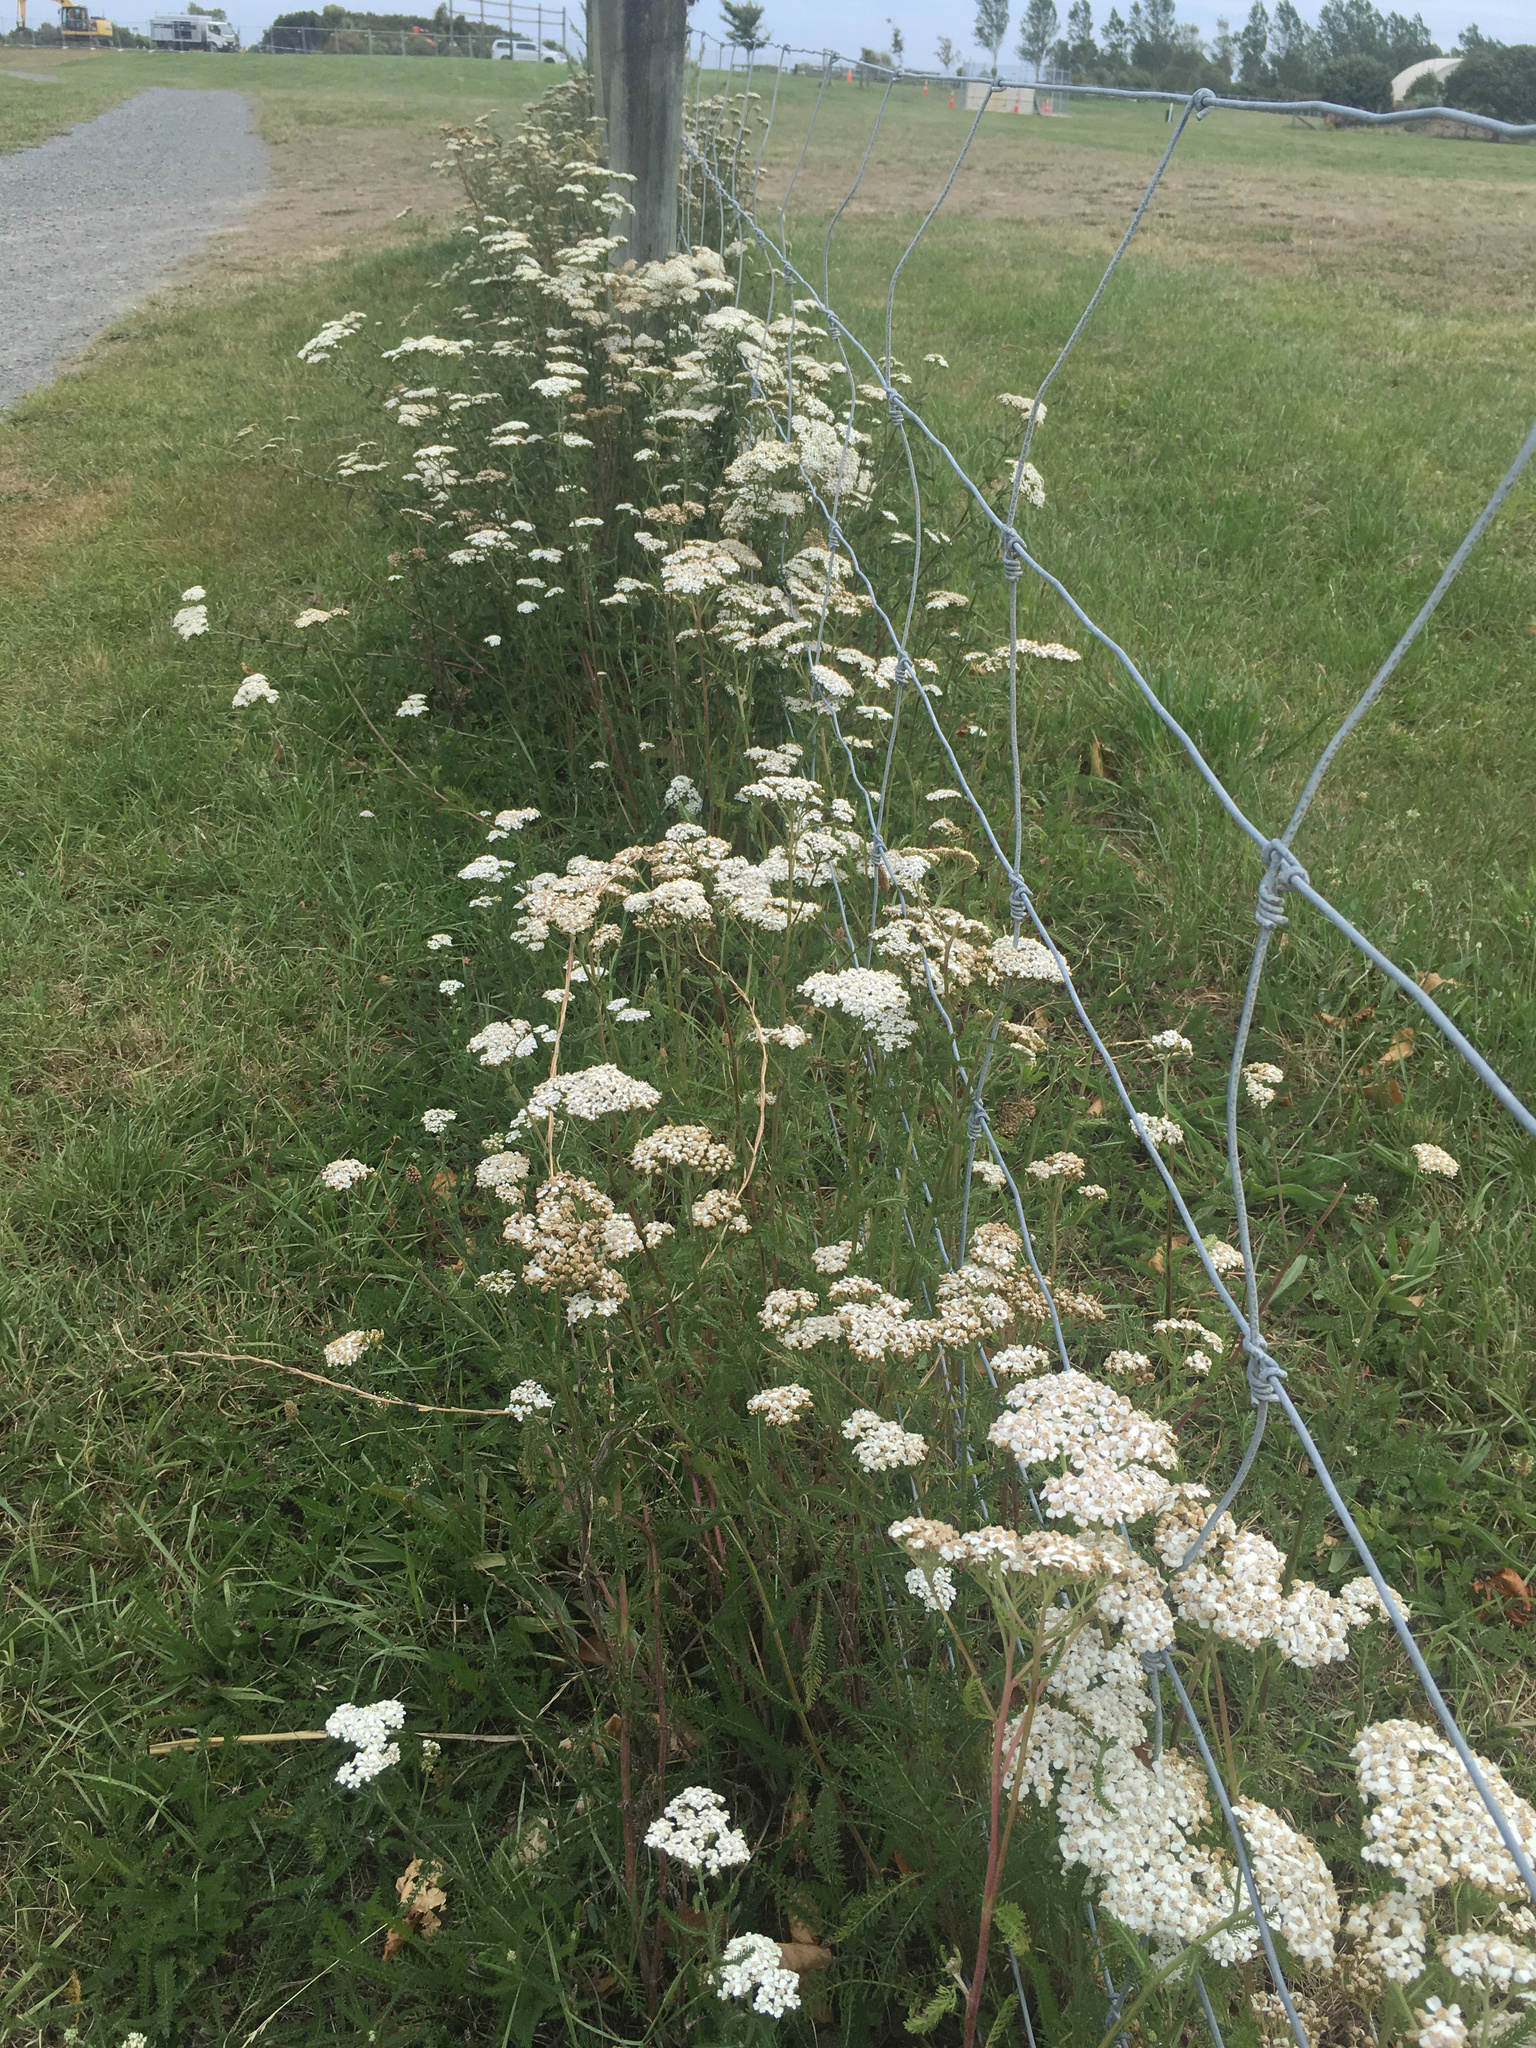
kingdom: Plantae
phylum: Tracheophyta
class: Magnoliopsida
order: Asterales
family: Asteraceae
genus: Achillea
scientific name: Achillea millefolium
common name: Yarrow
